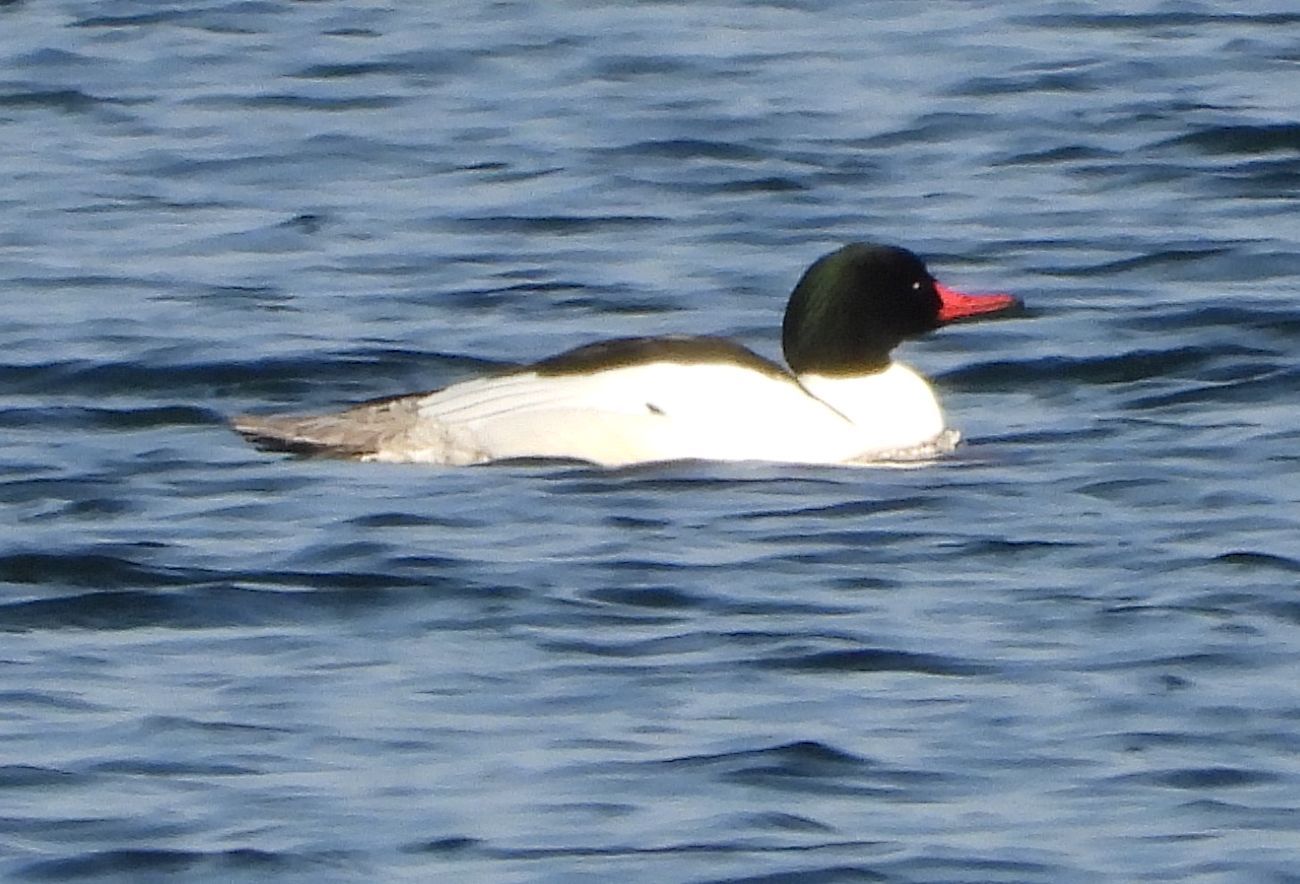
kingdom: Animalia
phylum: Chordata
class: Aves
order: Anseriformes
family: Anatidae
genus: Mergus
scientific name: Mergus merganser
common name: Common merganser
